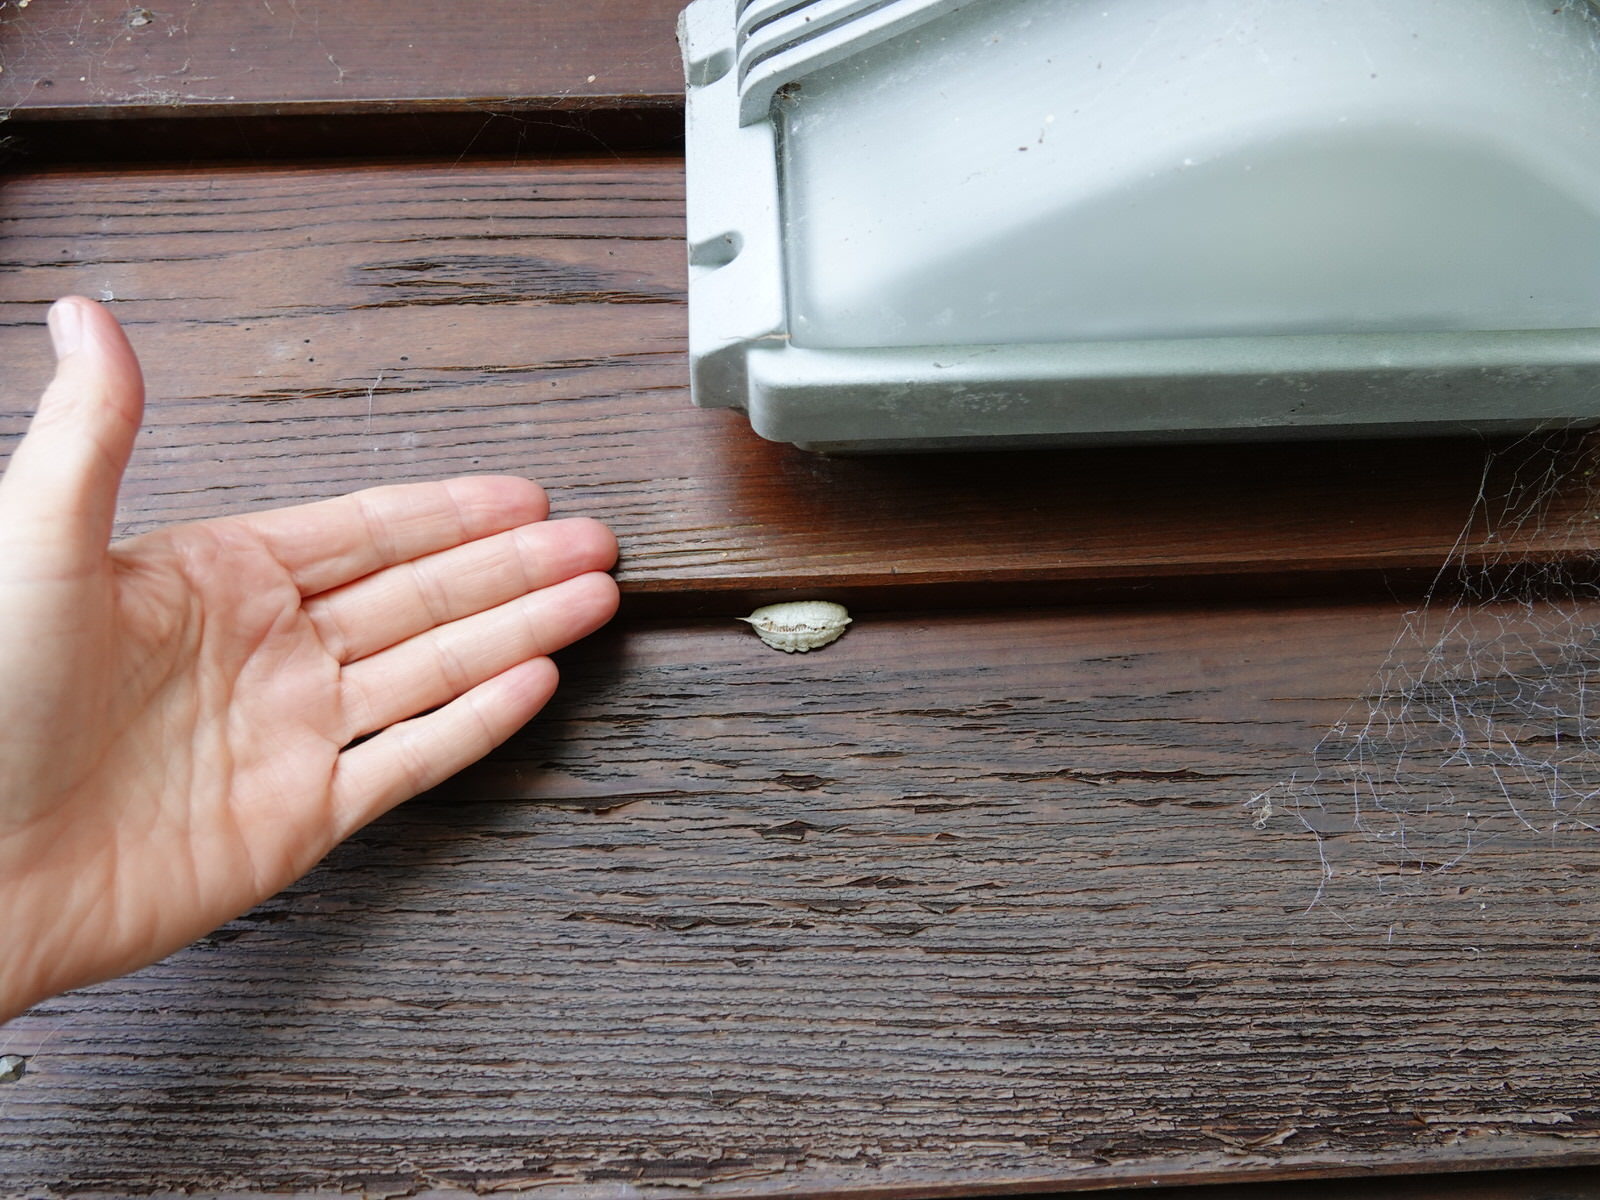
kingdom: Animalia
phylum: Arthropoda
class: Insecta
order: Mantodea
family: Miomantidae
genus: Miomantis
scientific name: Miomantis caffra
